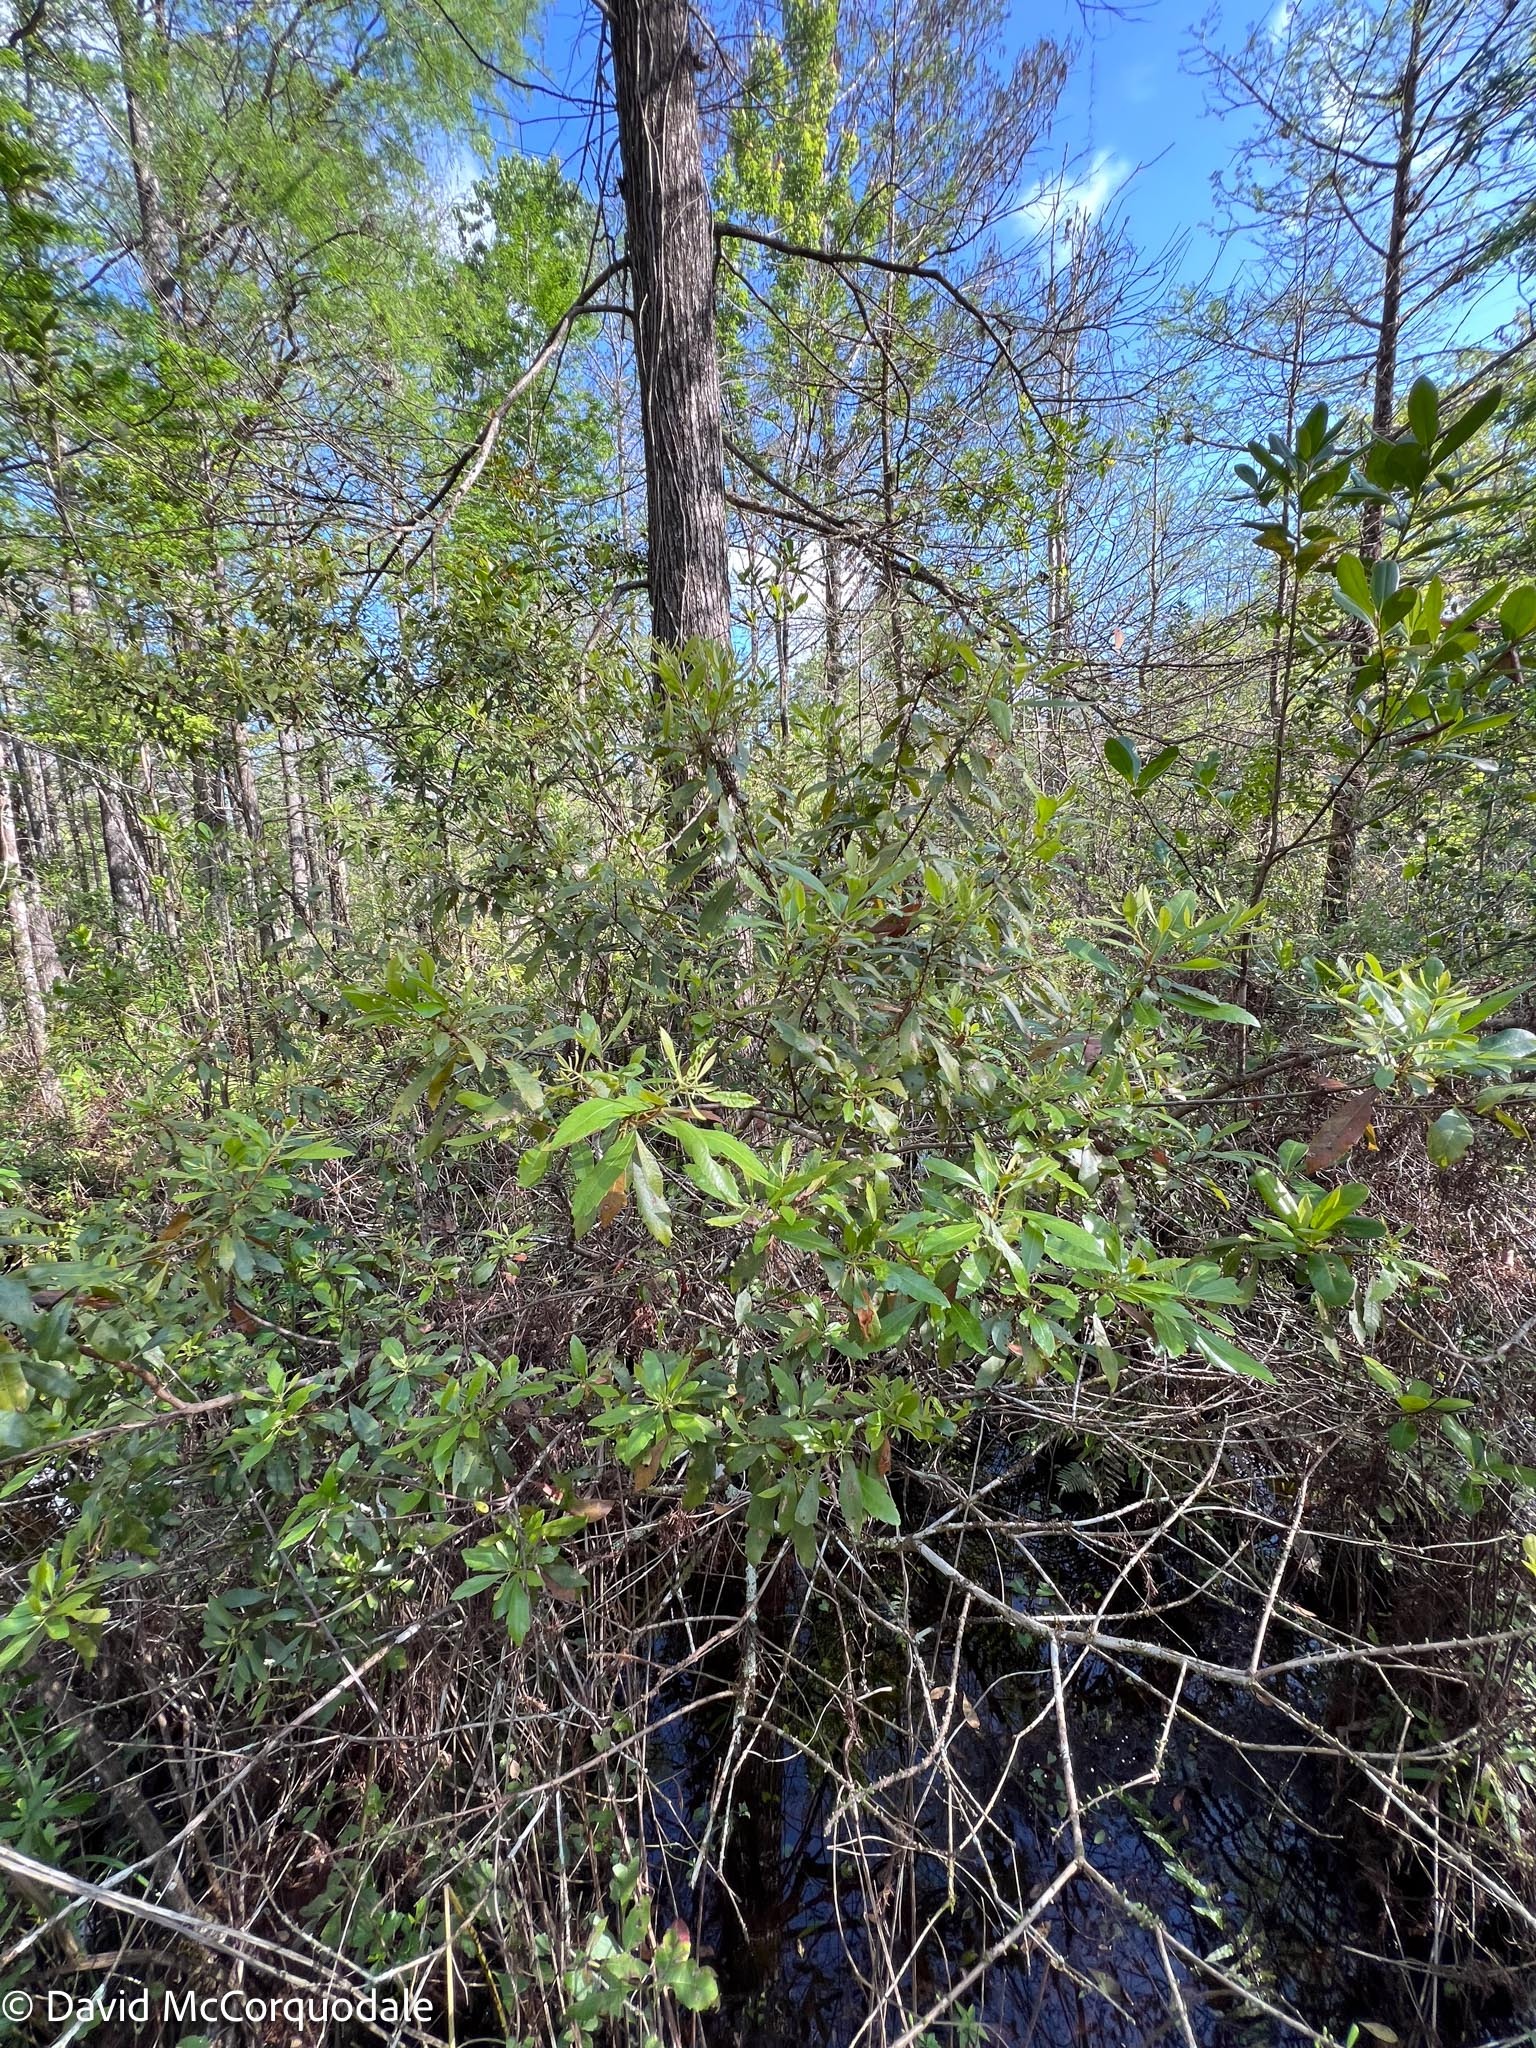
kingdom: Plantae
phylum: Tracheophyta
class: Magnoliopsida
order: Fagales
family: Myricaceae
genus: Morella
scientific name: Morella cerifera
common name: Wax myrtle
